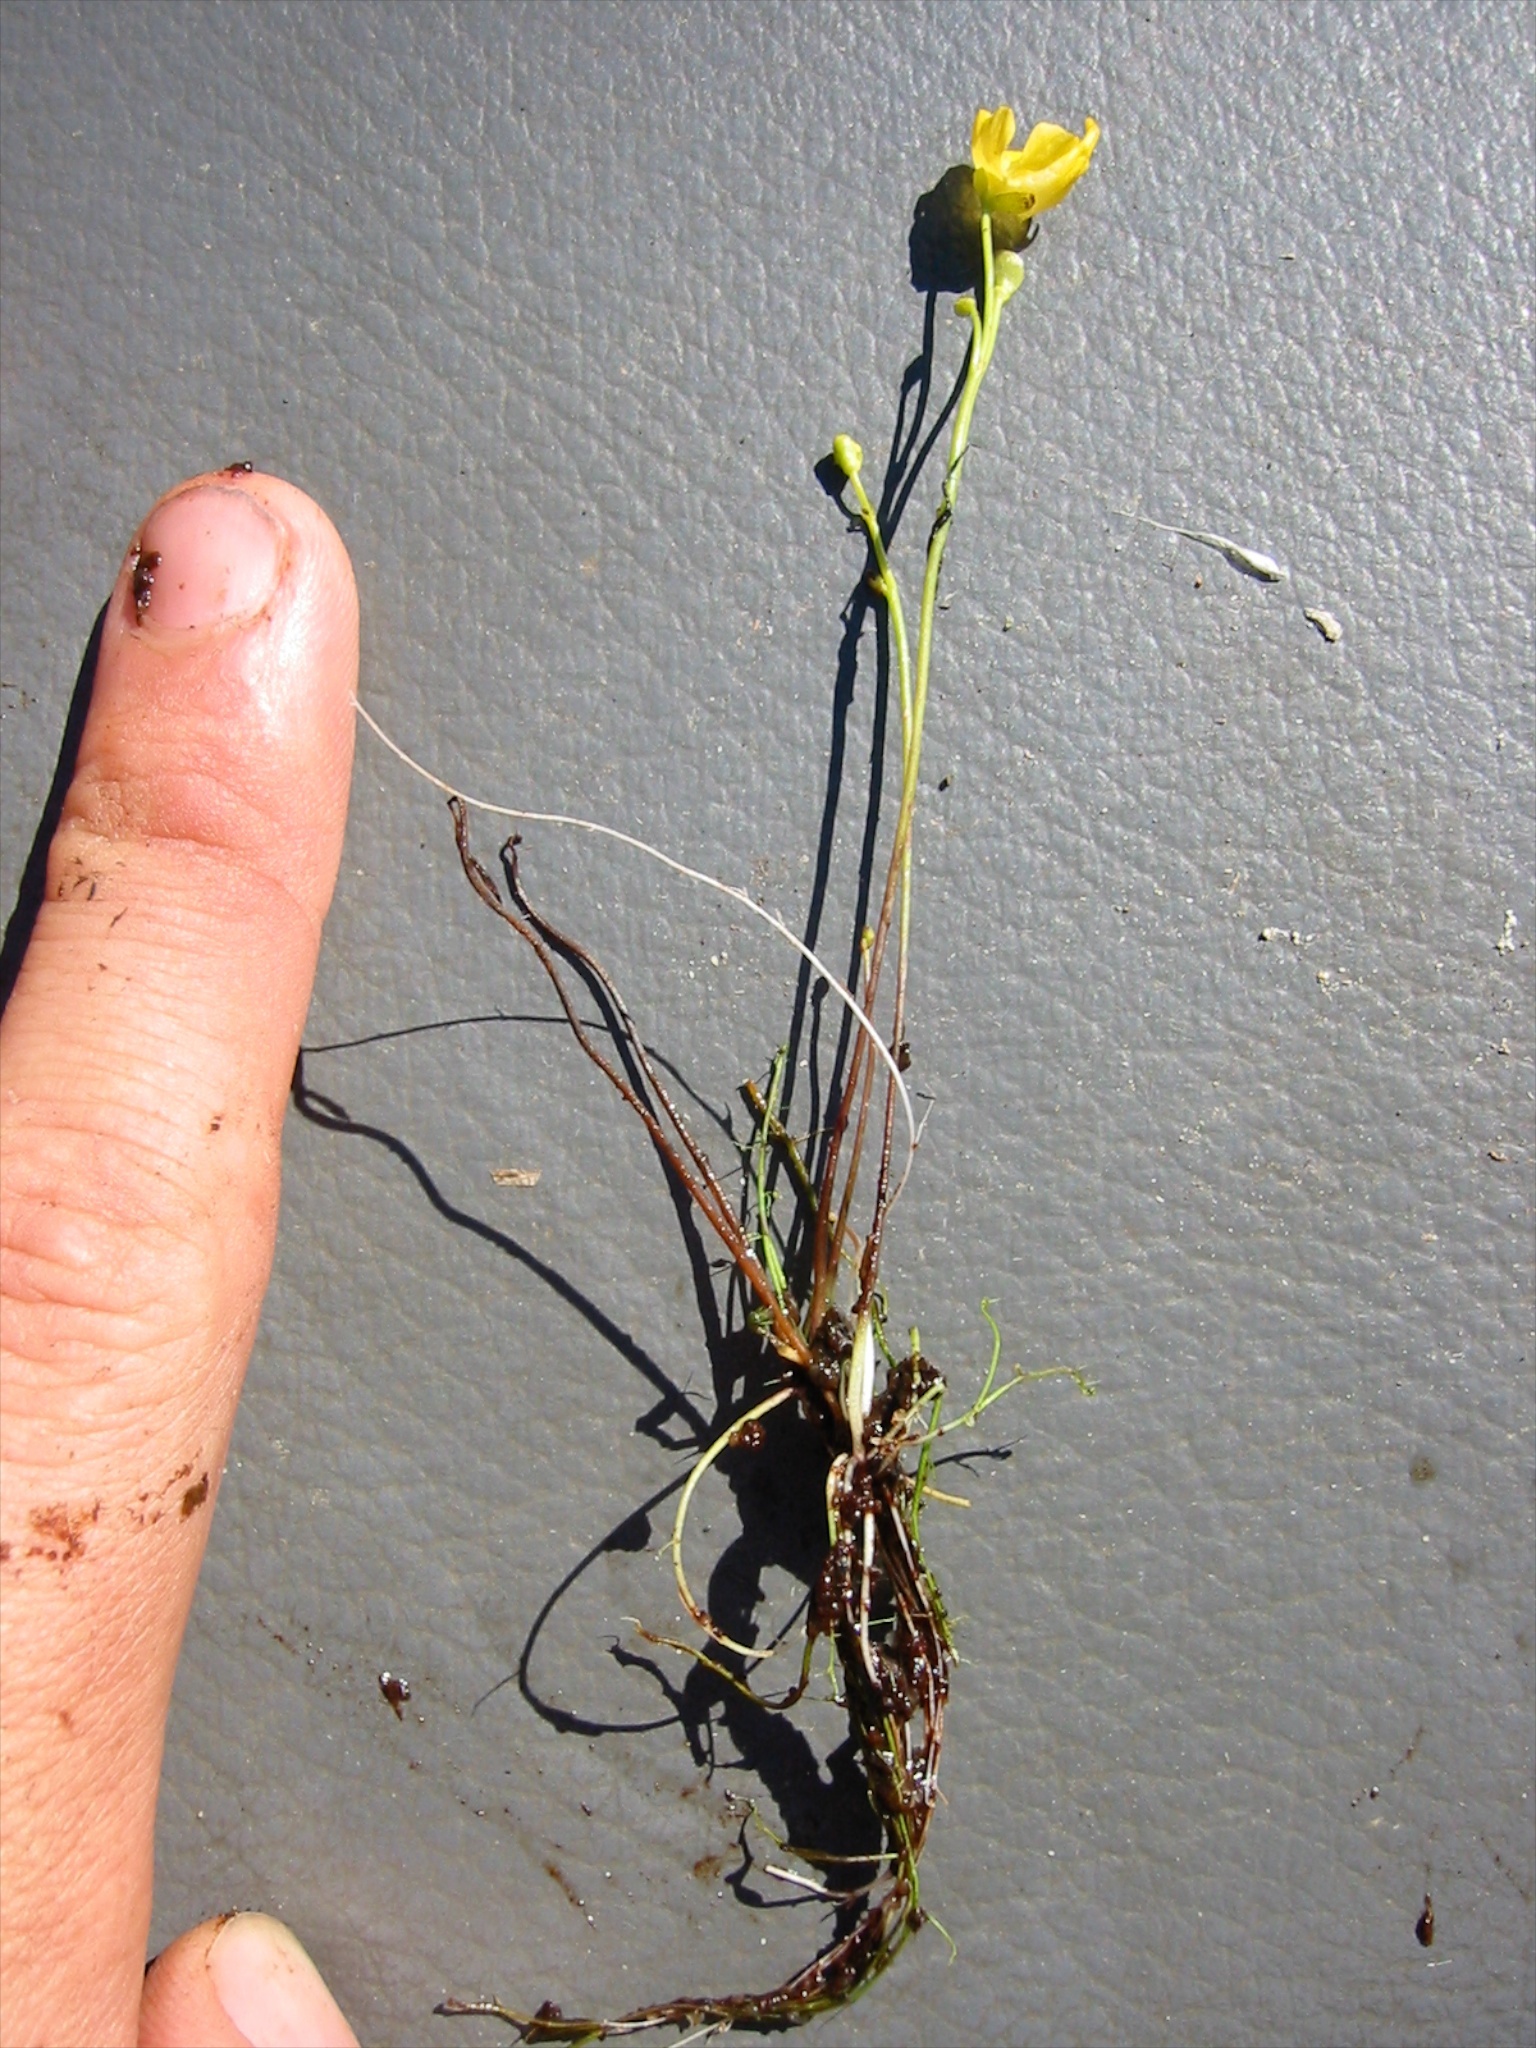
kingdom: Plantae
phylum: Tracheophyta
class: Magnoliopsida
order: Lamiales
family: Lentibulariaceae
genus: Utricularia
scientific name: Utricularia gibba
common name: Humped bladderwort
